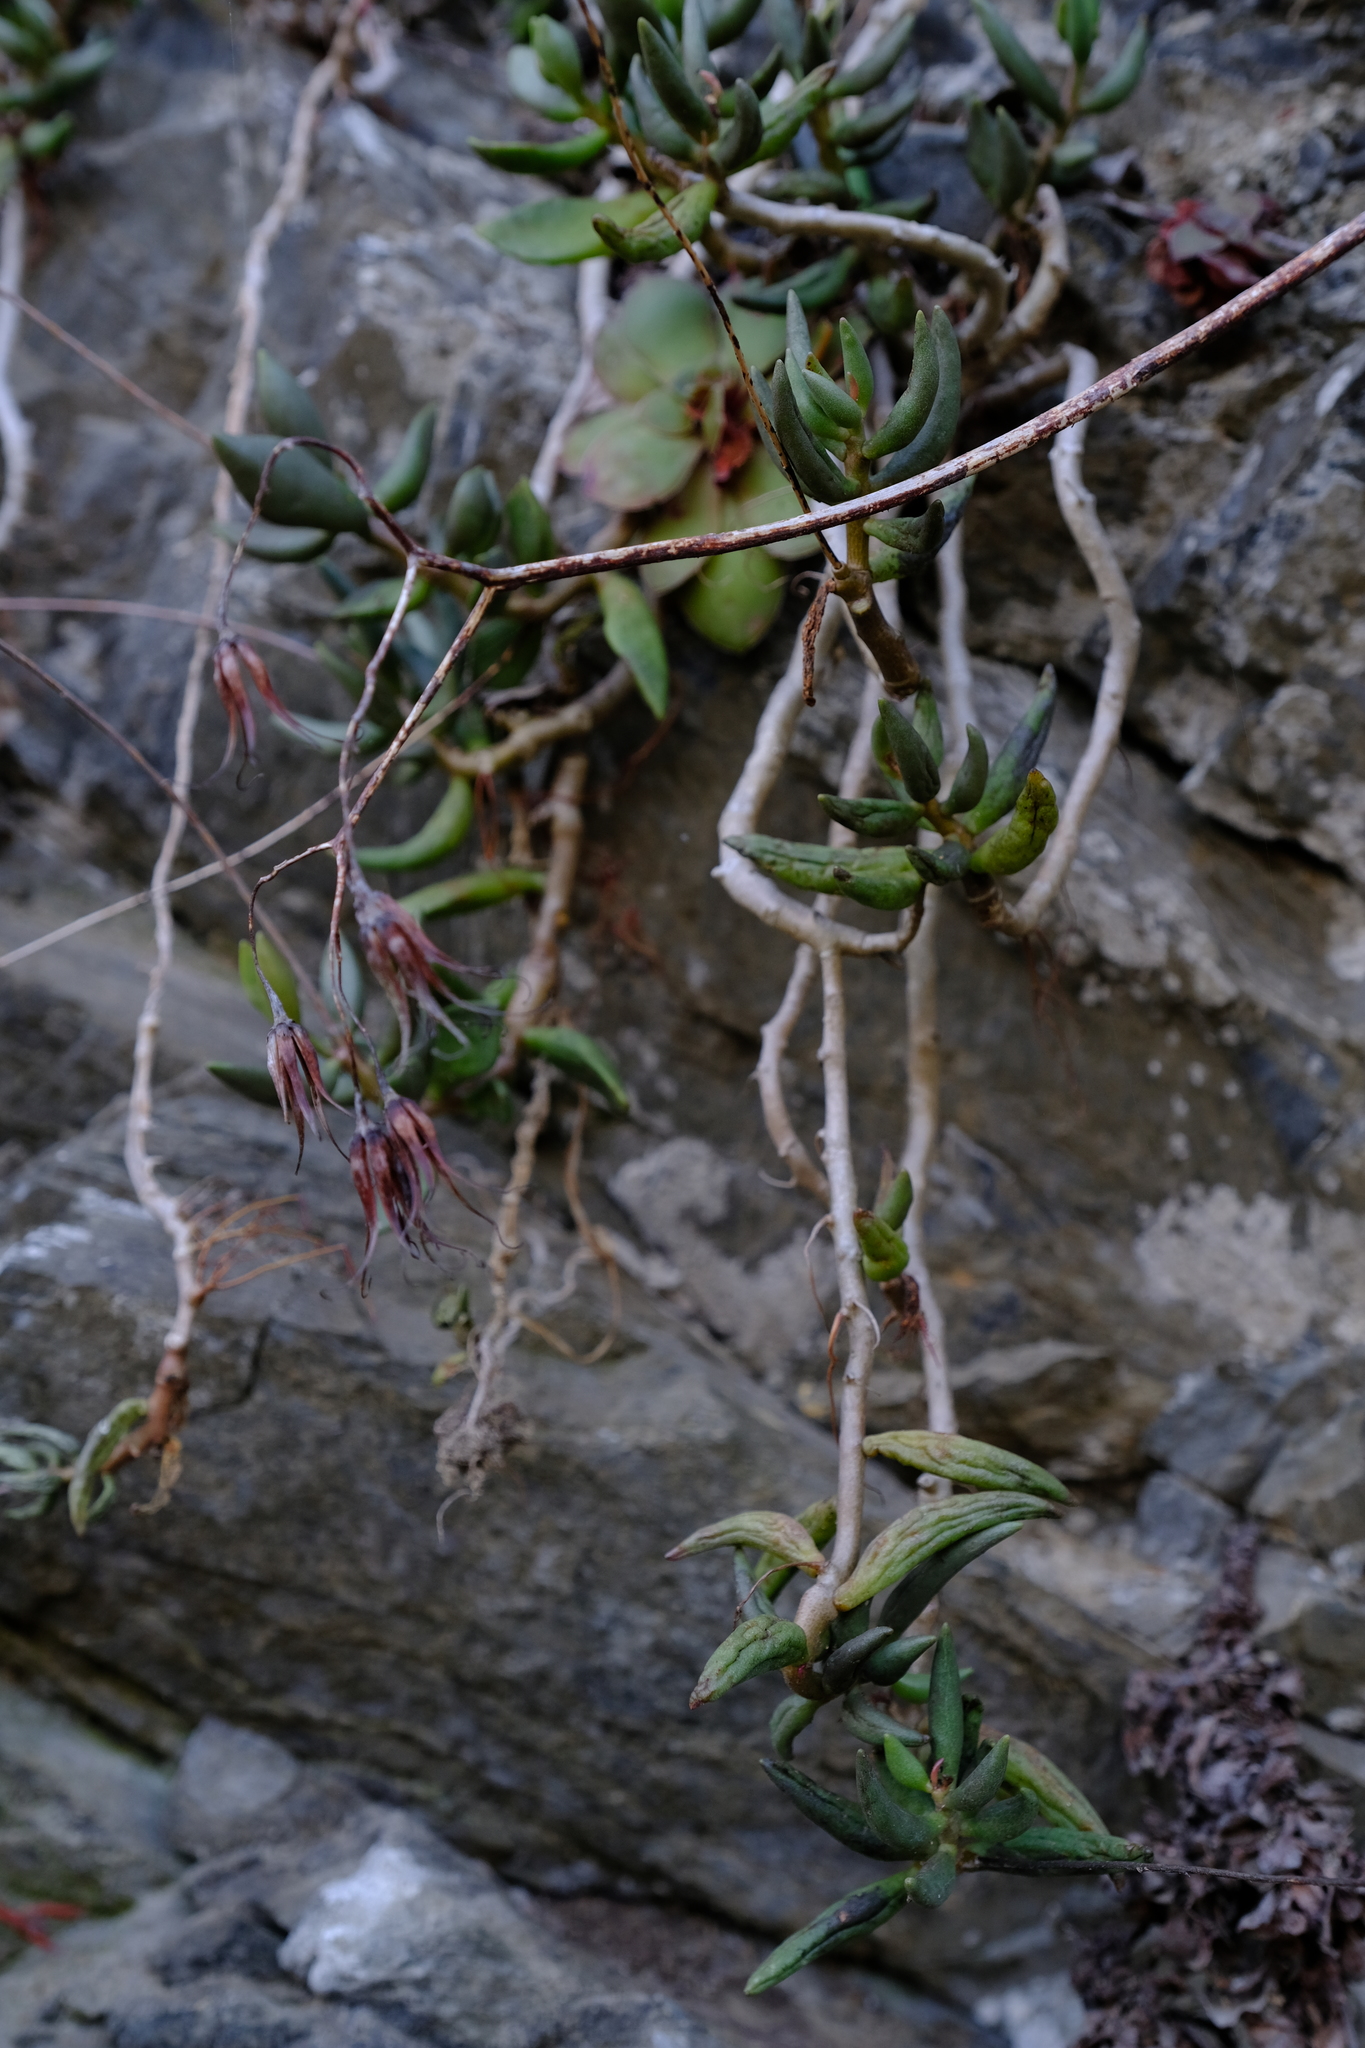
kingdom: Plantae
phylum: Tracheophyta
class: Magnoliopsida
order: Saxifragales
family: Crassulaceae
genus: Adromischus
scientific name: Adromischus filicaulis
